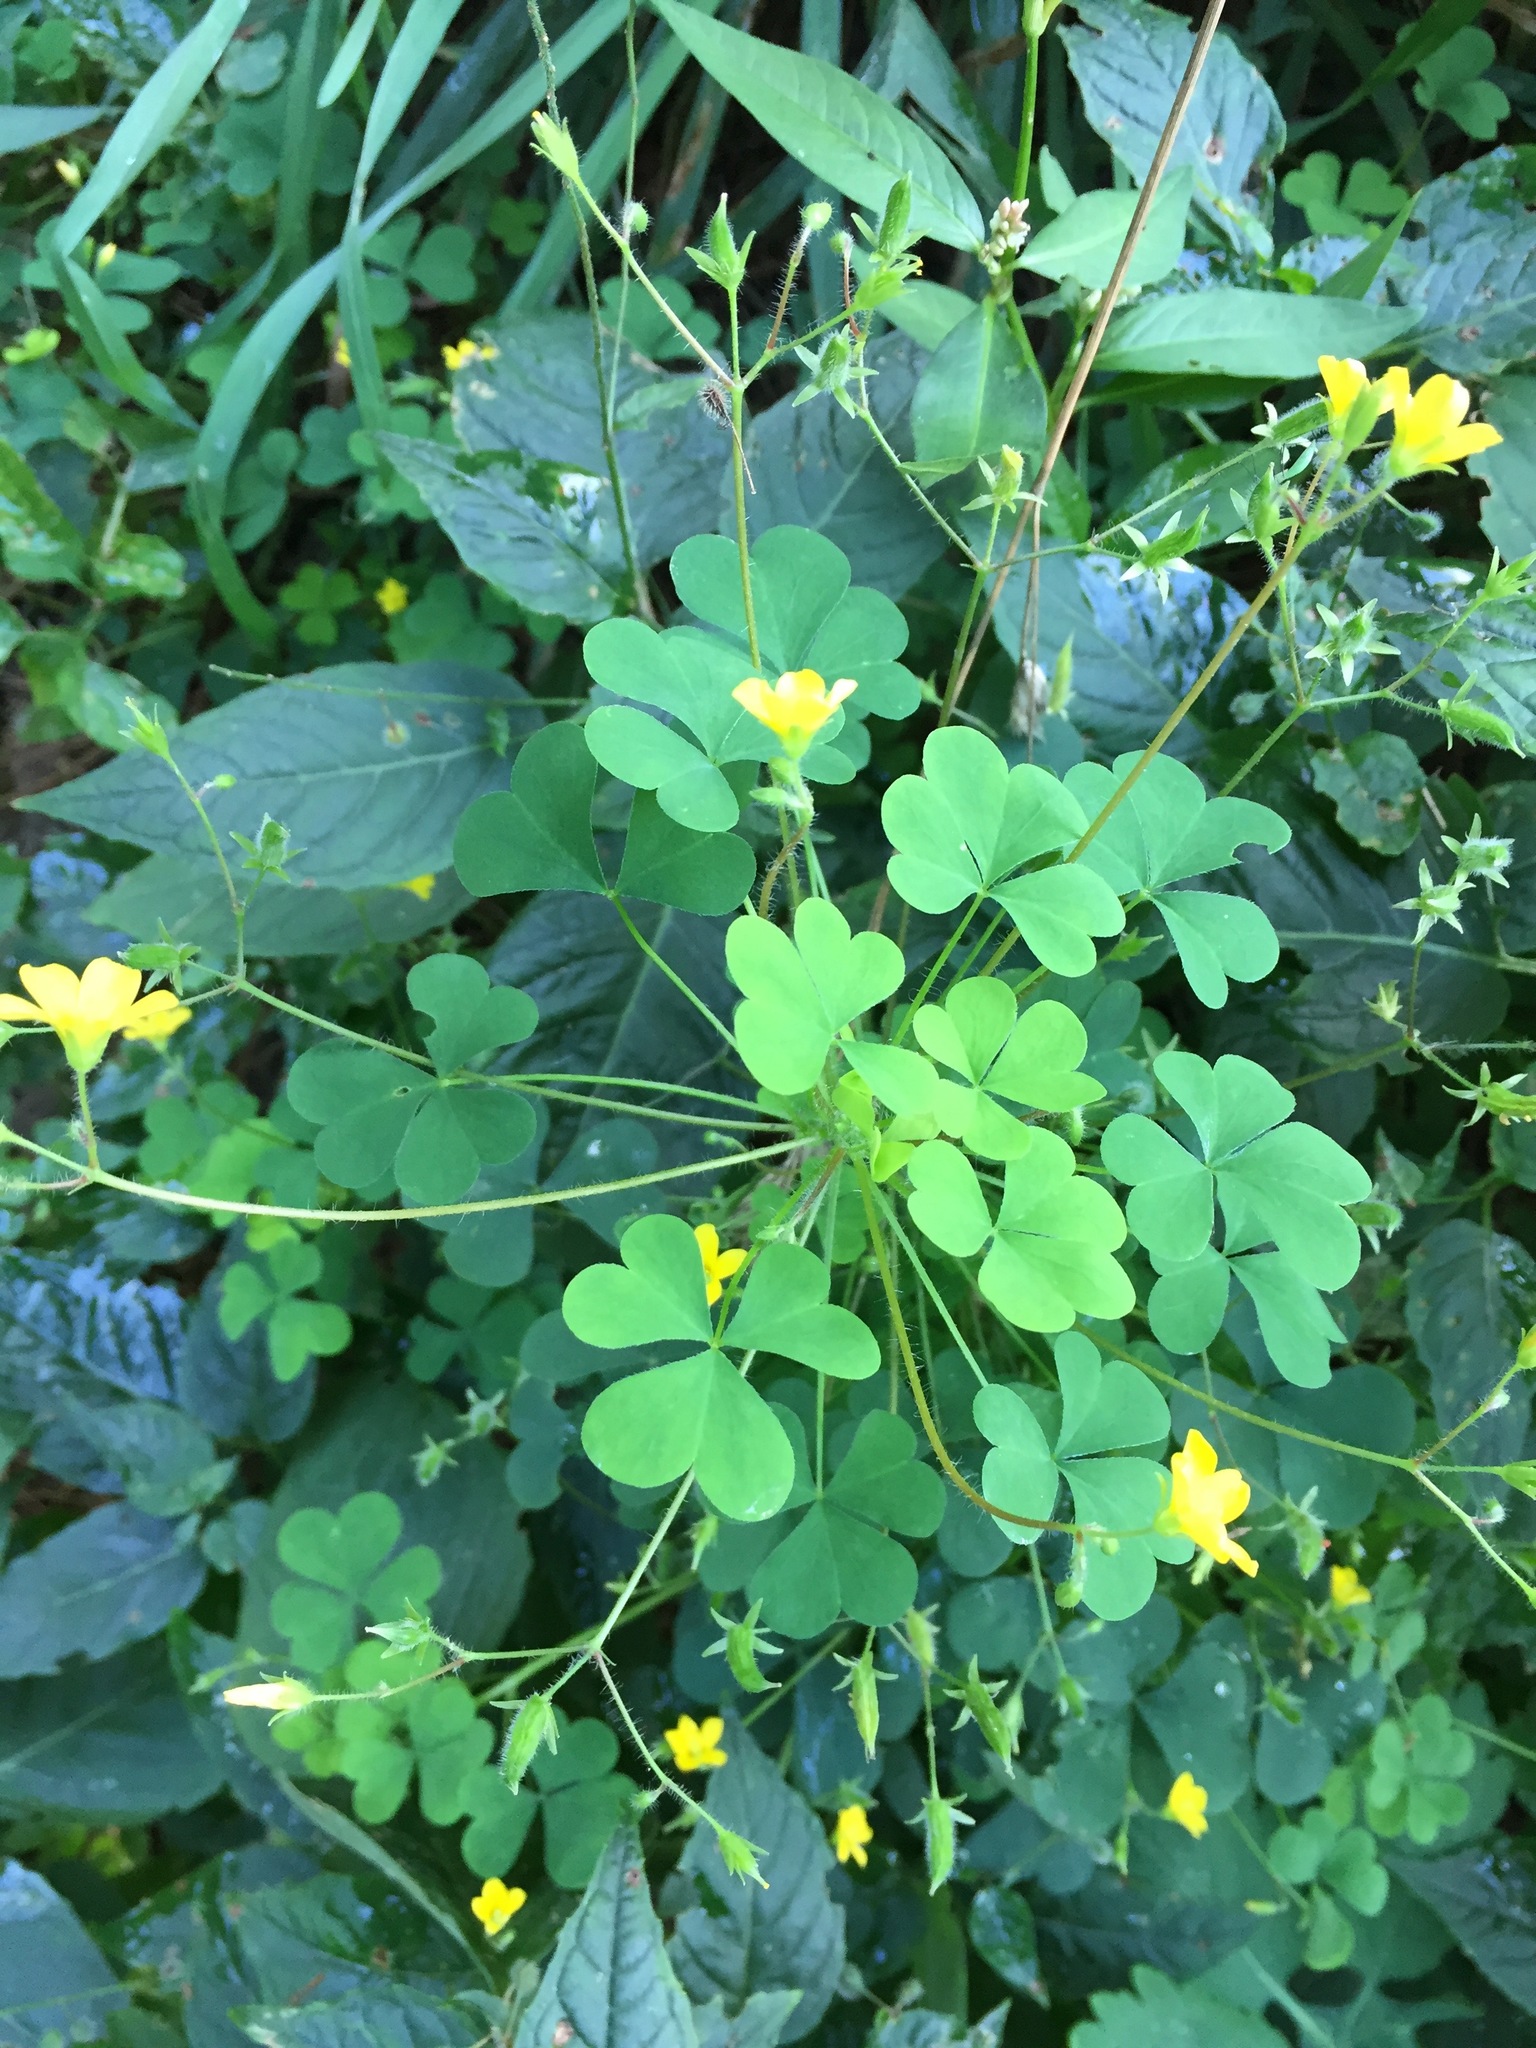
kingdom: Plantae
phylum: Tracheophyta
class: Magnoliopsida
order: Oxalidales
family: Oxalidaceae
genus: Oxalis
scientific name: Oxalis stricta
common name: Upright yellow-sorrel
